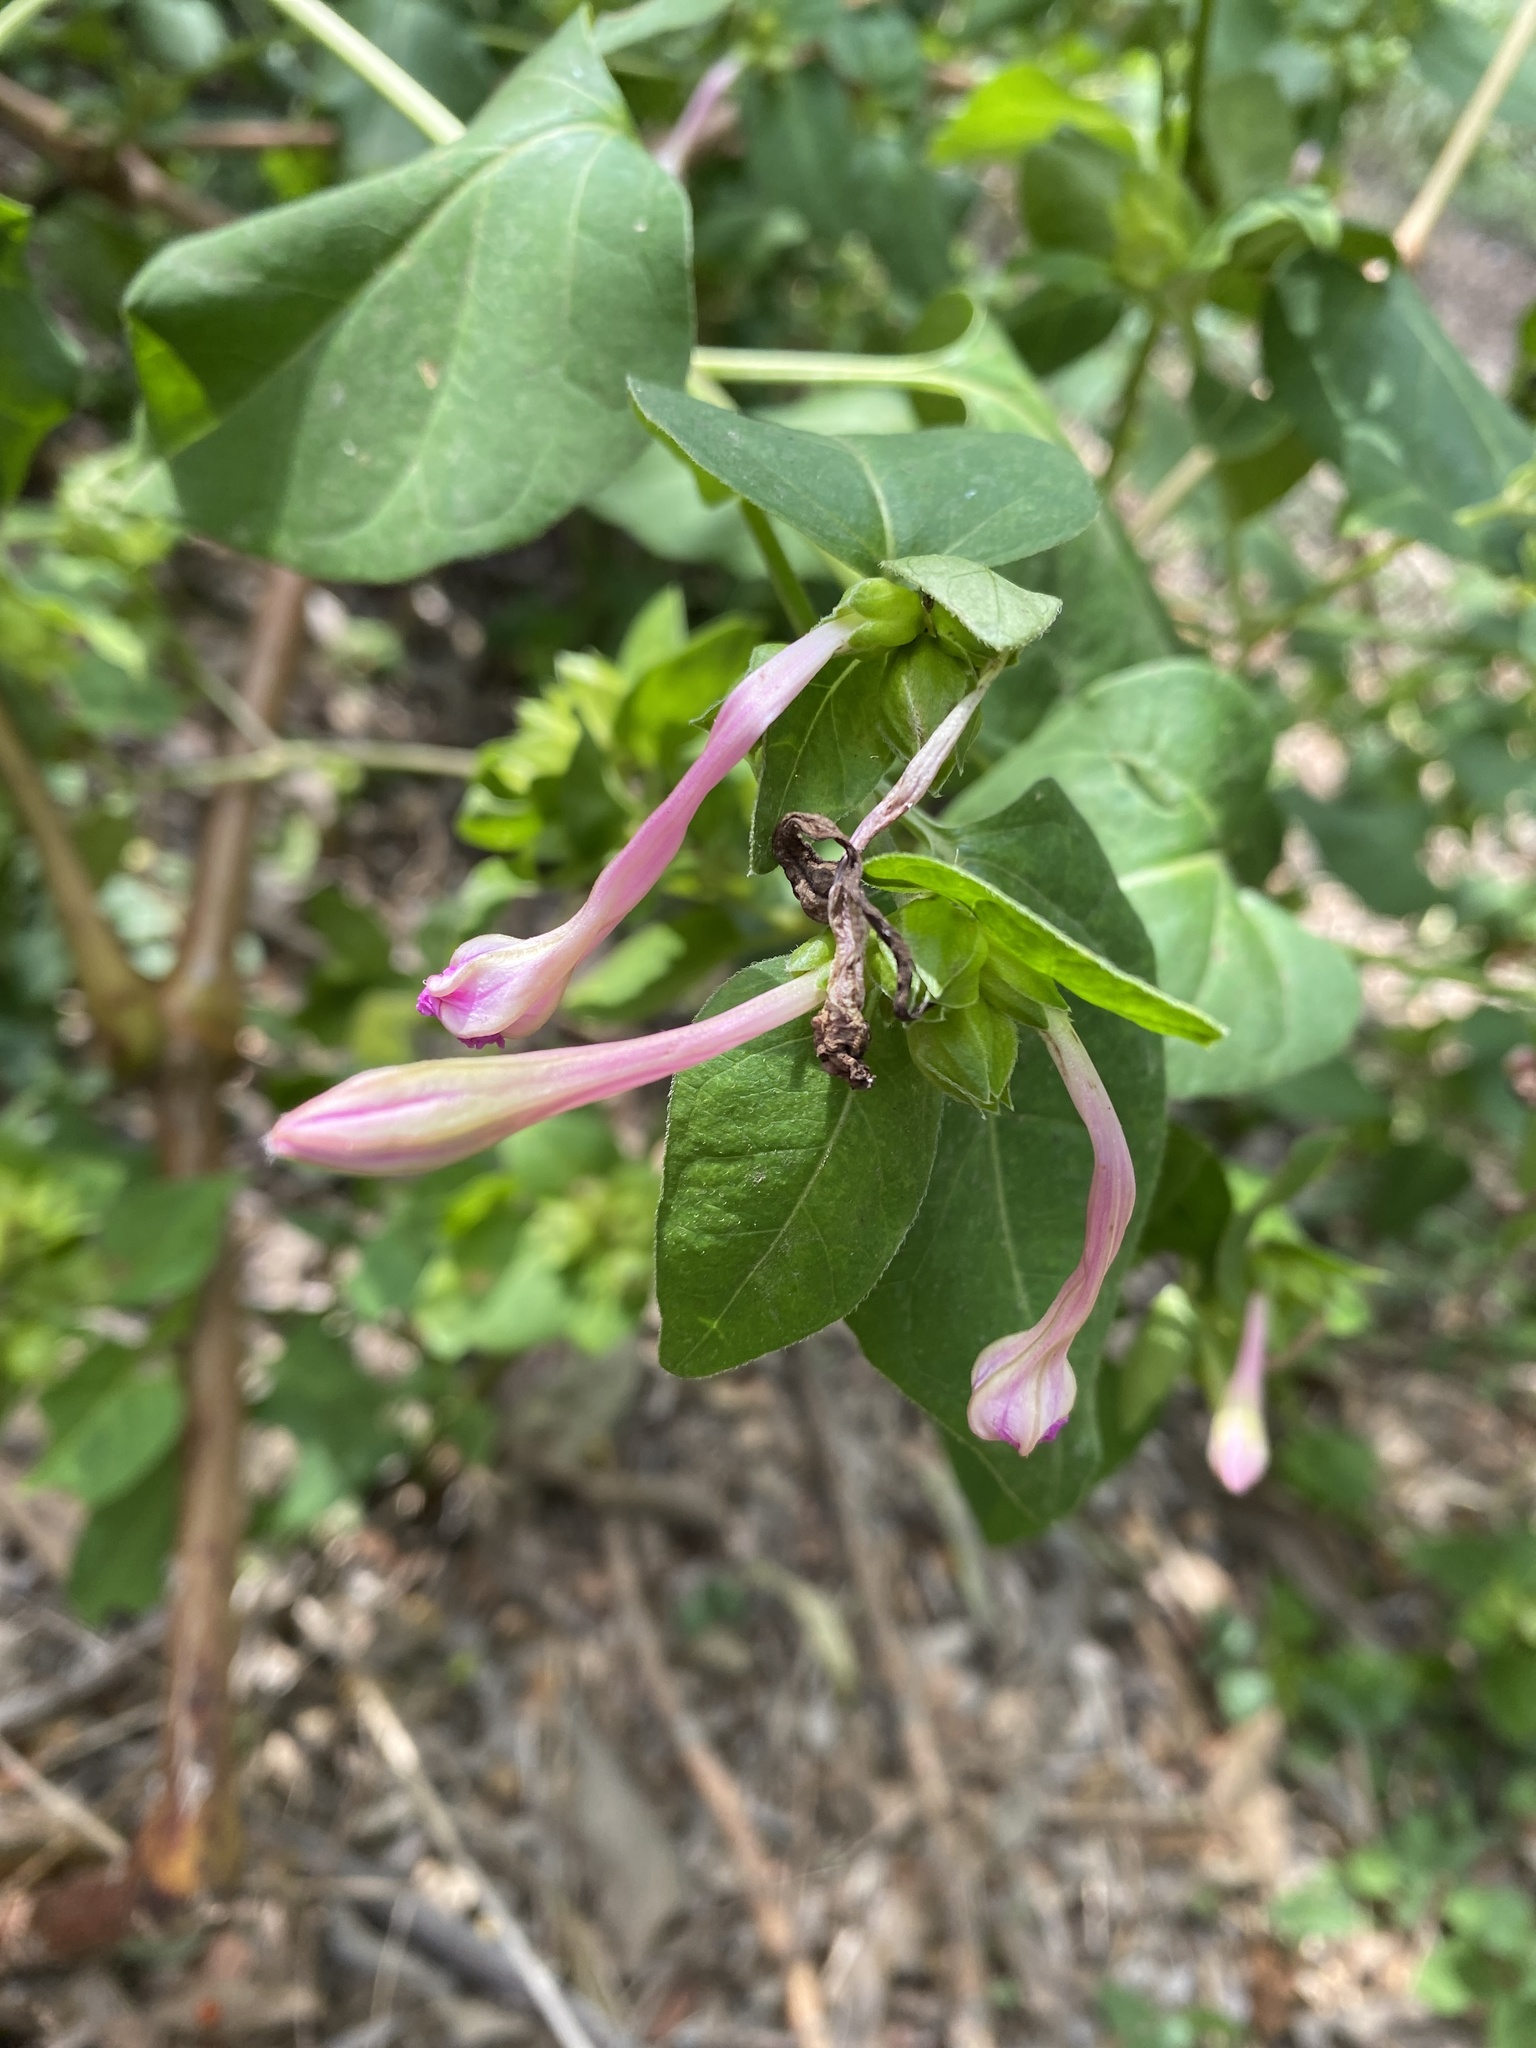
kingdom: Plantae
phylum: Tracheophyta
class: Magnoliopsida
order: Caryophyllales
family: Nyctaginaceae
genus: Mirabilis
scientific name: Mirabilis jalapa
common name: Marvel-of-peru
